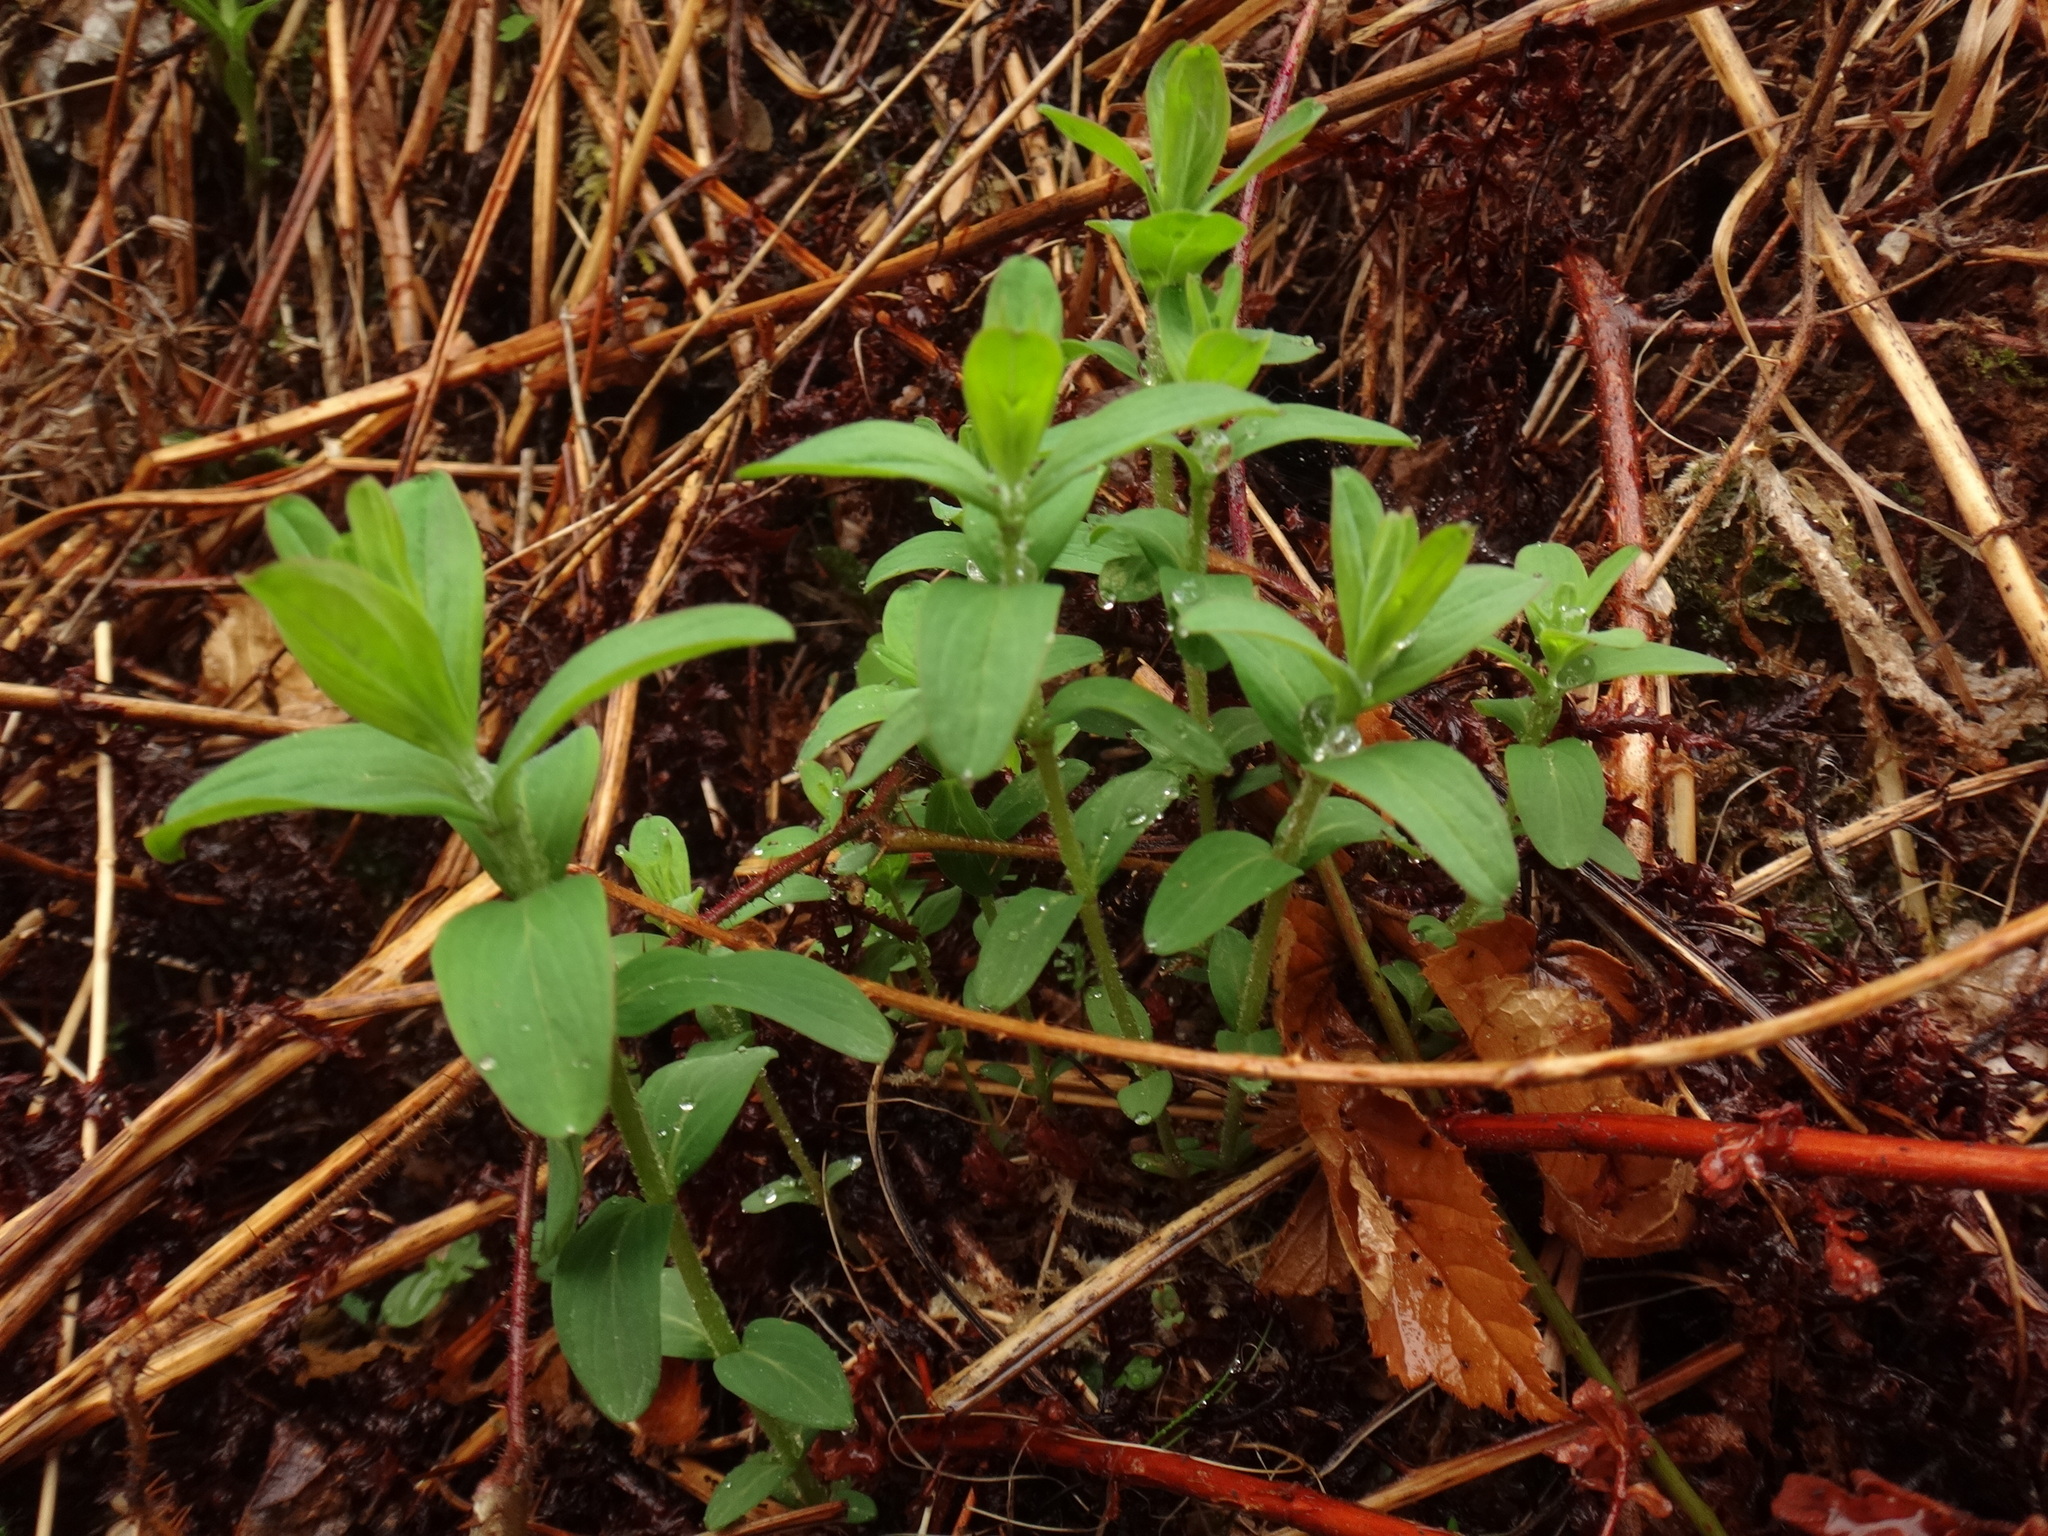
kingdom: Plantae
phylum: Tracheophyta
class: Magnoliopsida
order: Malpighiales
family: Hypericaceae
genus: Hypericum
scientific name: Hypericum hirsutum
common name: Hairy st. john's-wort
